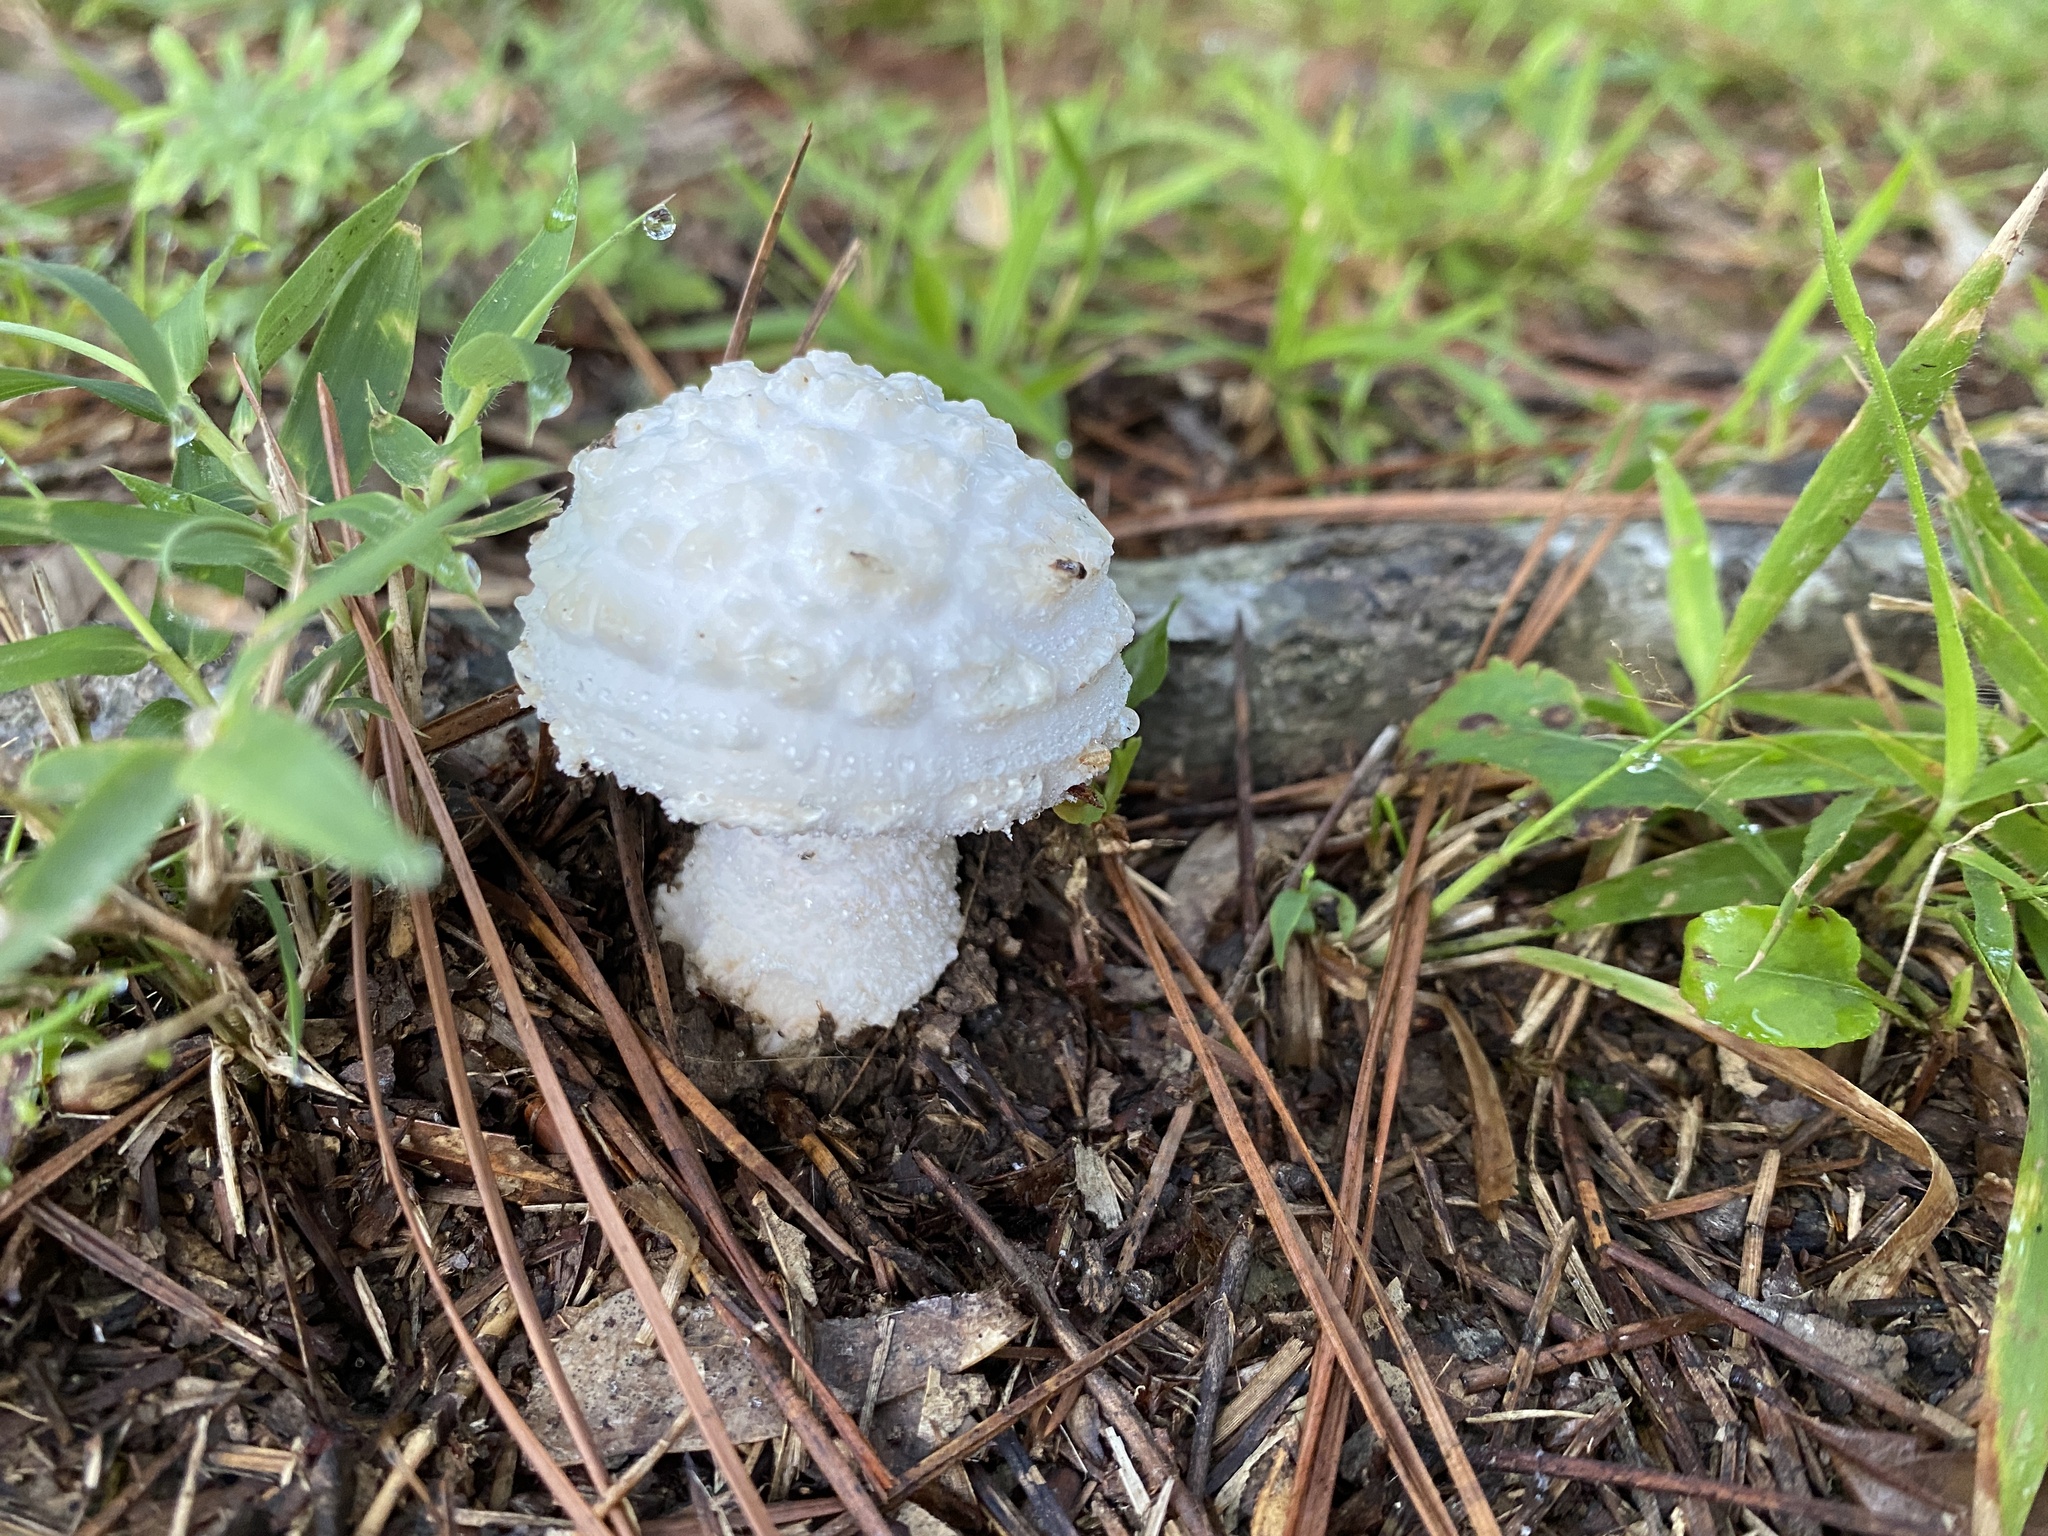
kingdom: Fungi
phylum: Basidiomycota
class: Agaricomycetes
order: Agaricales
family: Amanitaceae
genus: Amanita
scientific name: Amanita canescens
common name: Golden threads lepidella
